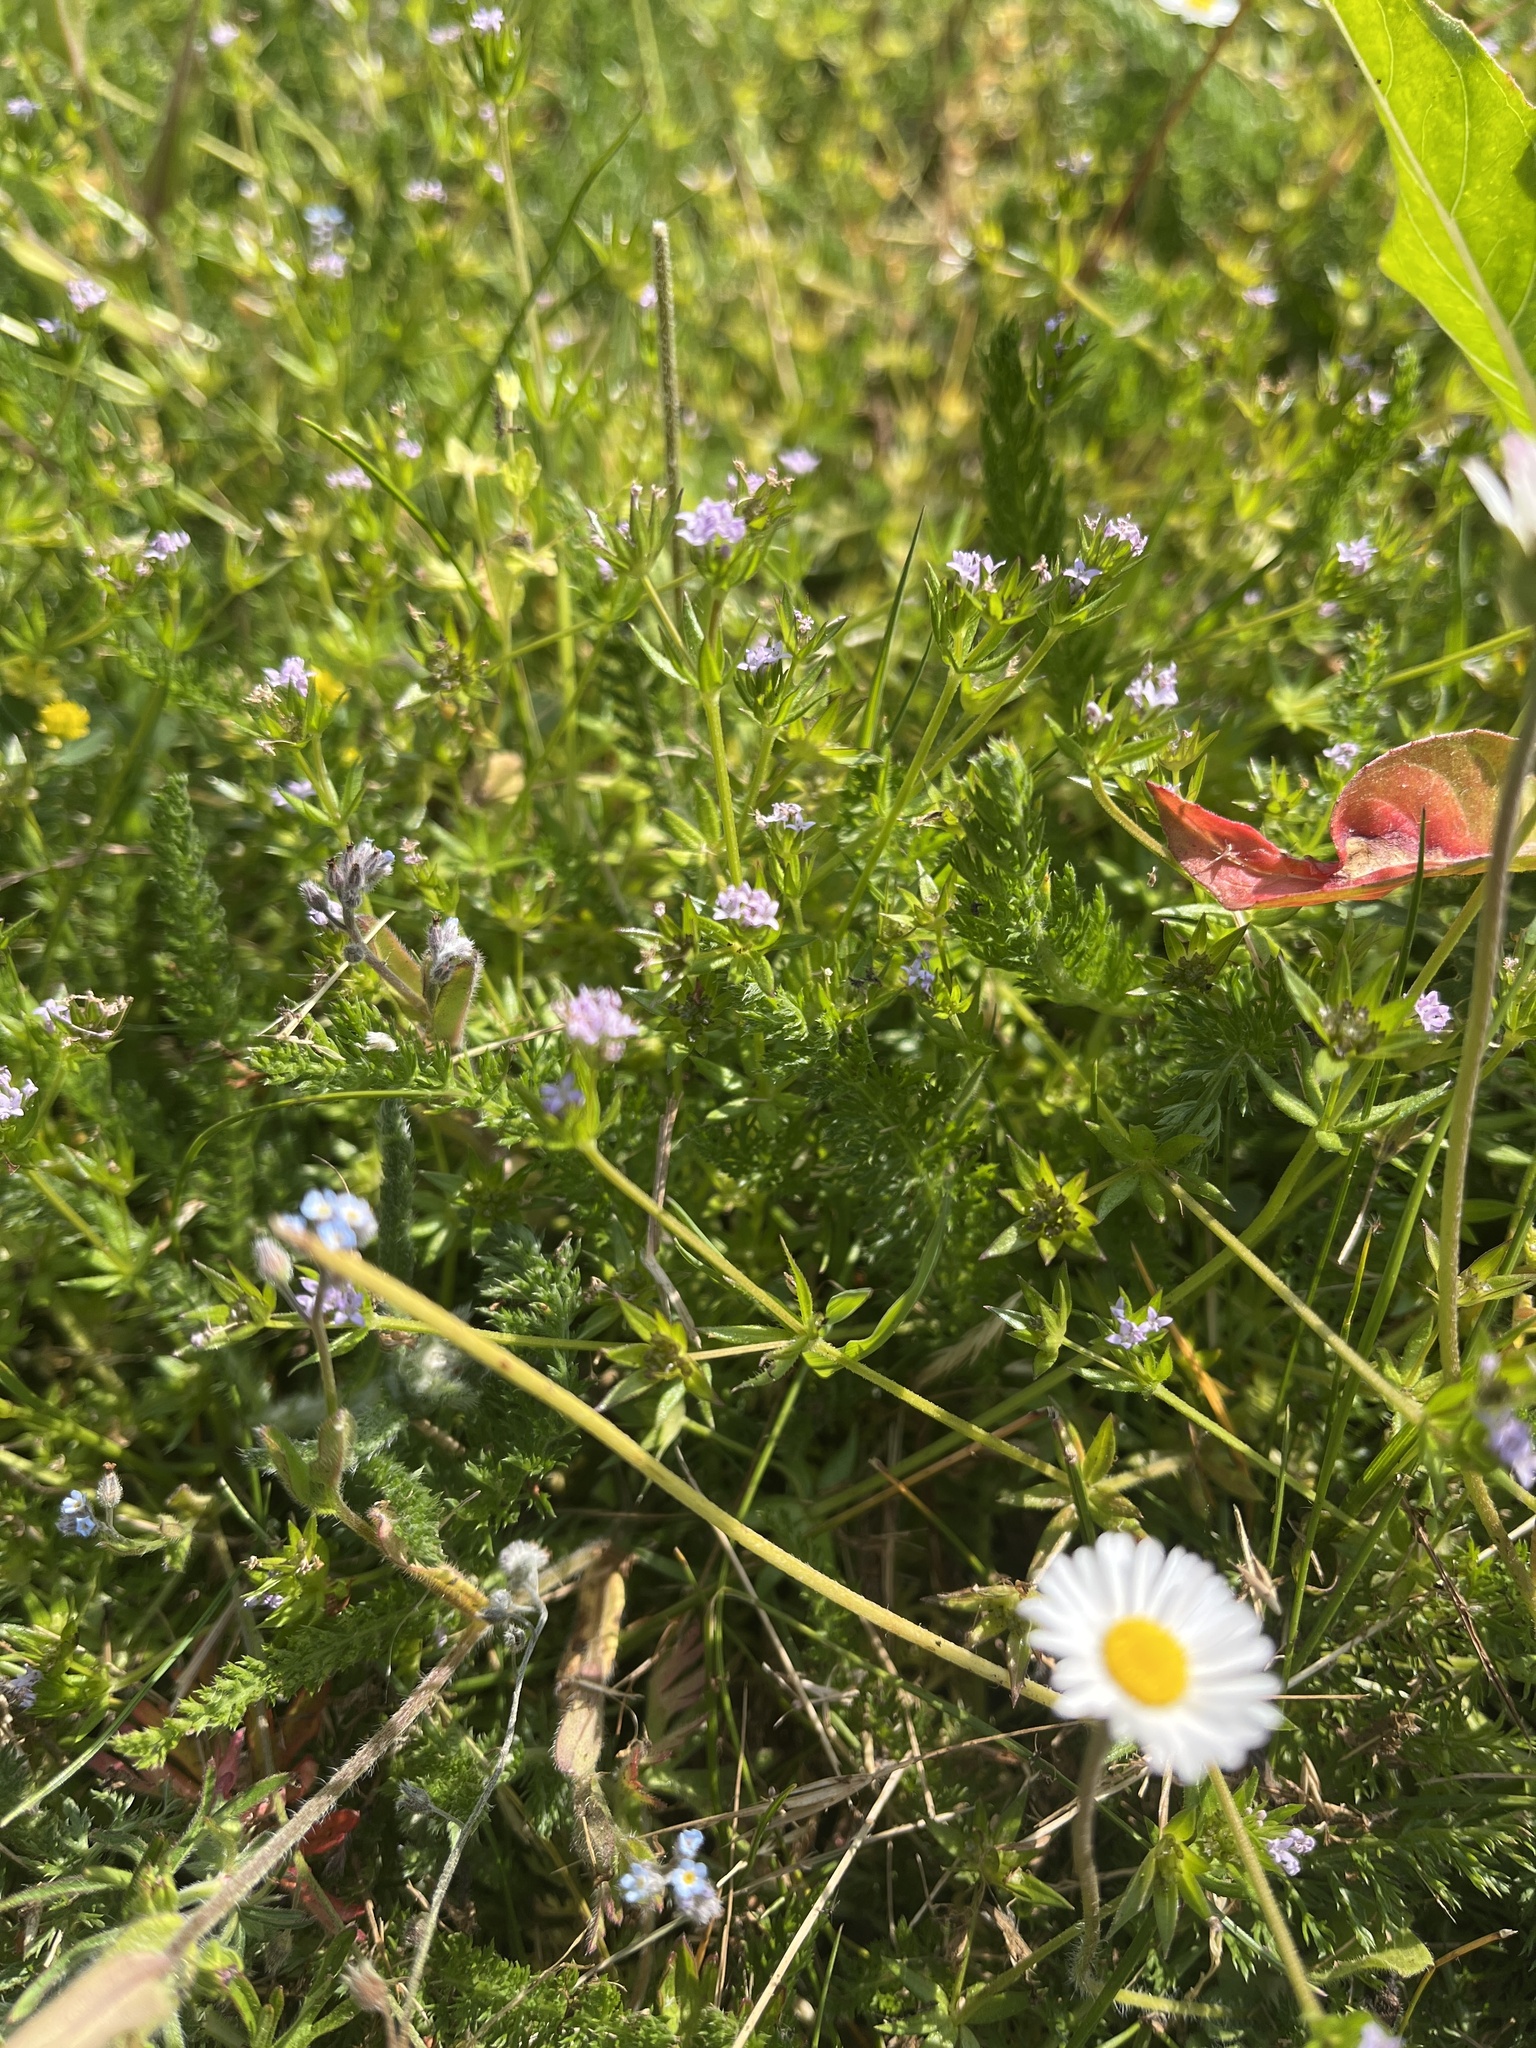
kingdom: Plantae
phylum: Tracheophyta
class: Magnoliopsida
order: Gentianales
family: Rubiaceae
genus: Sherardia
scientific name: Sherardia arvensis
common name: Field madder
